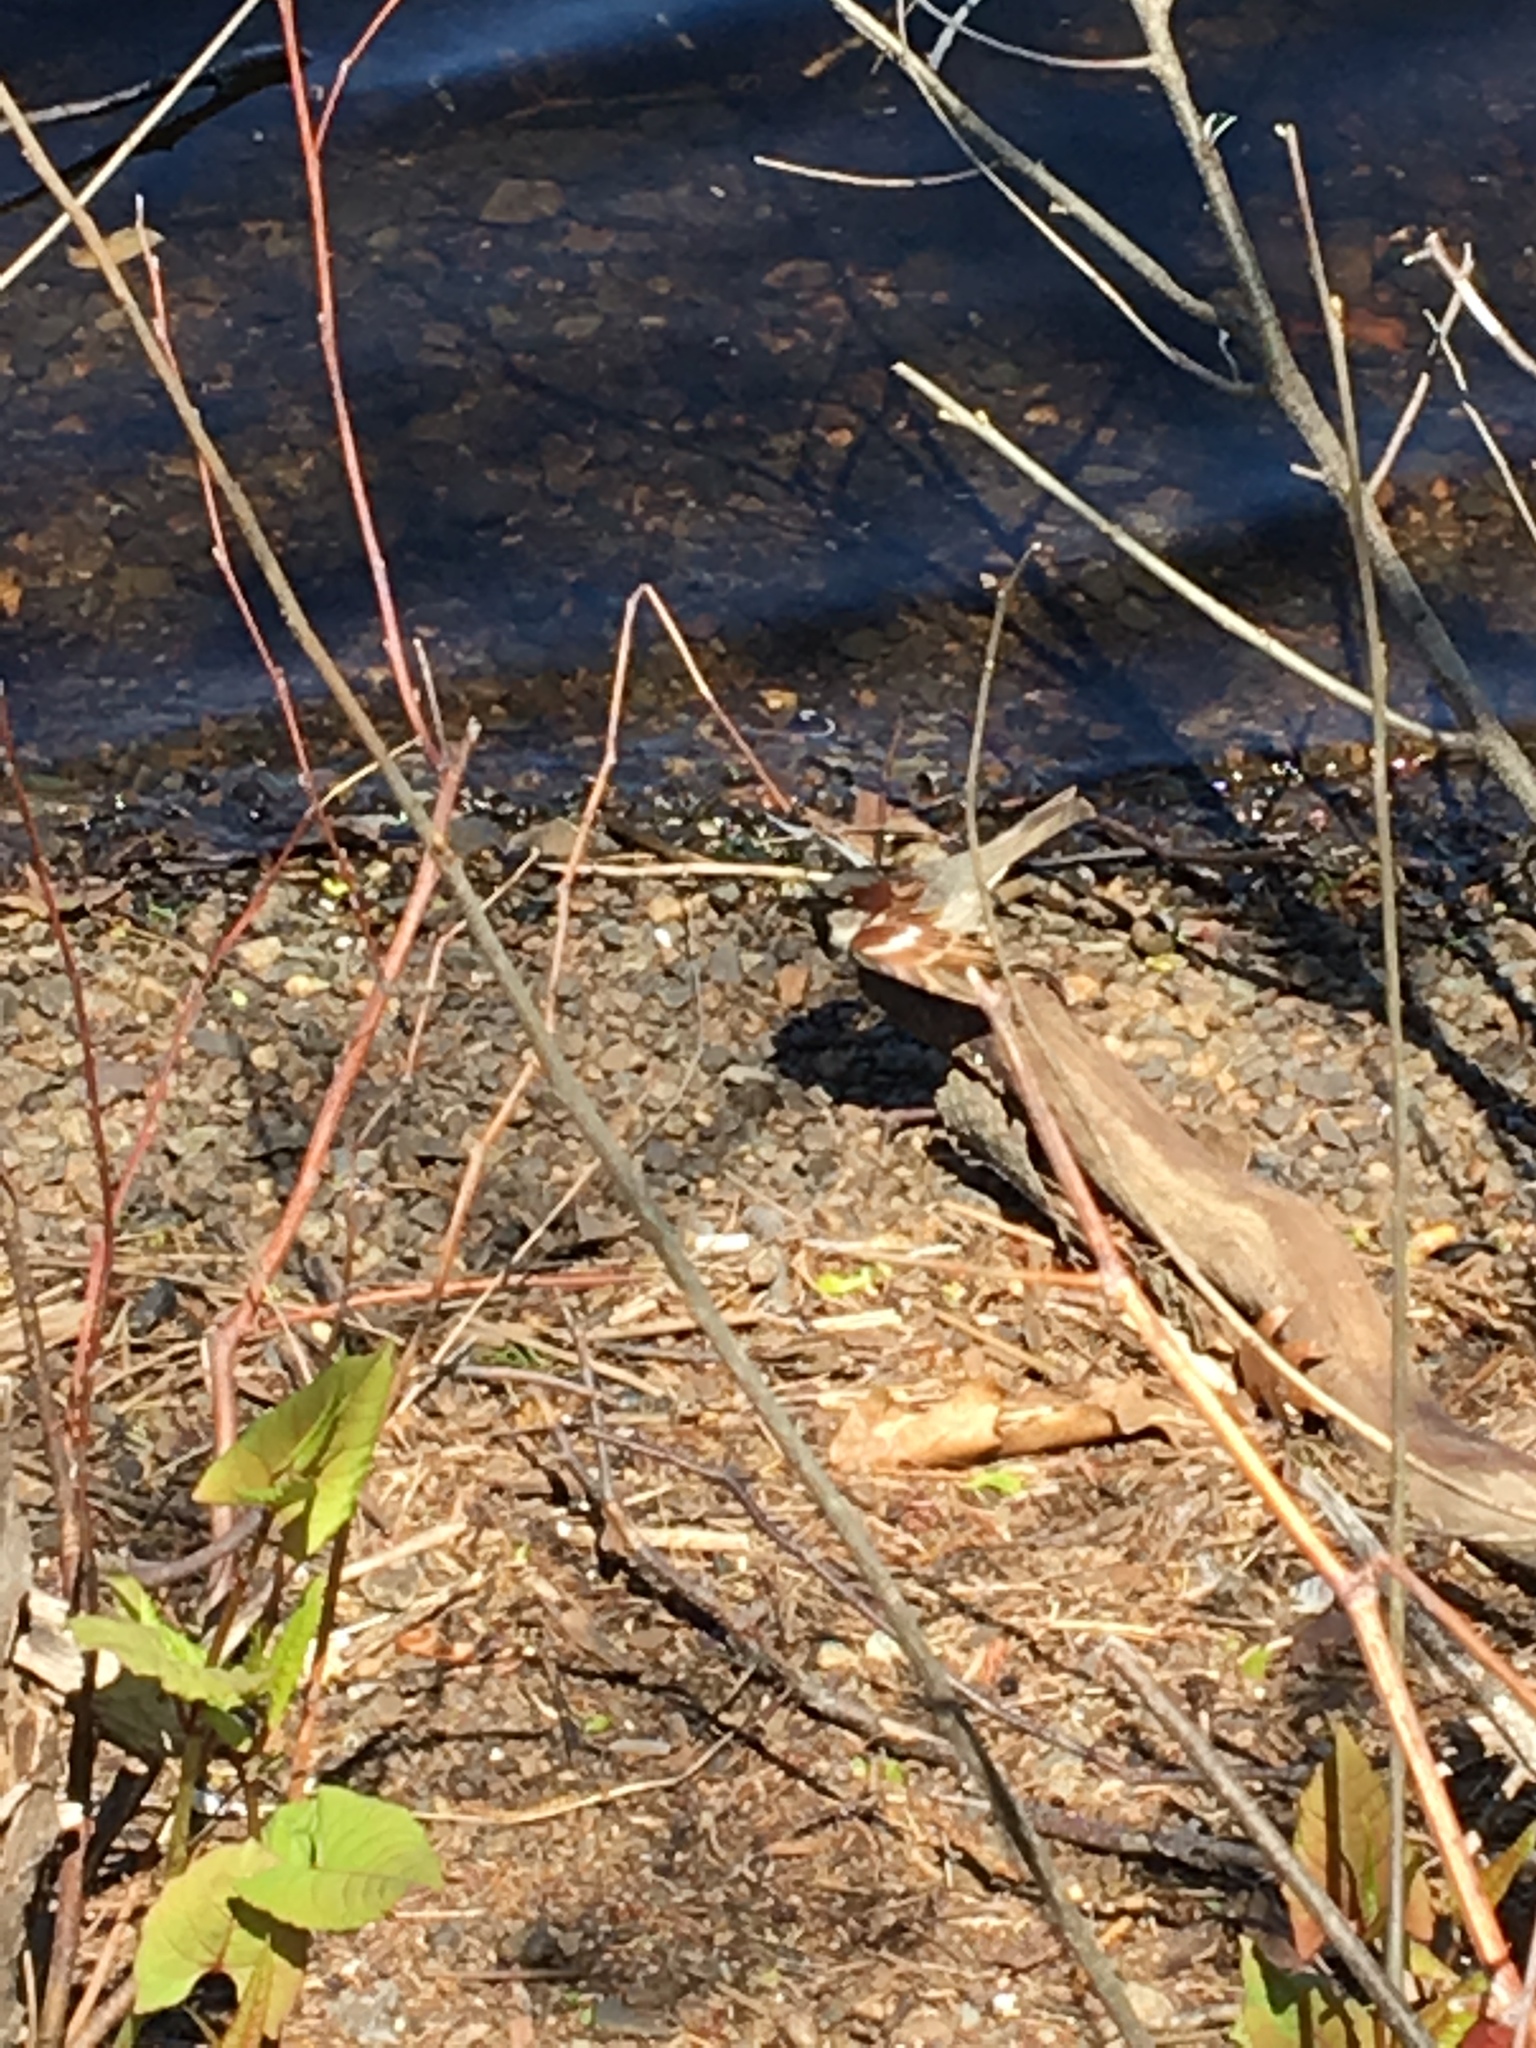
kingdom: Animalia
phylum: Chordata
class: Aves
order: Passeriformes
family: Passeridae
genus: Passer
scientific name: Passer domesticus
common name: House sparrow
